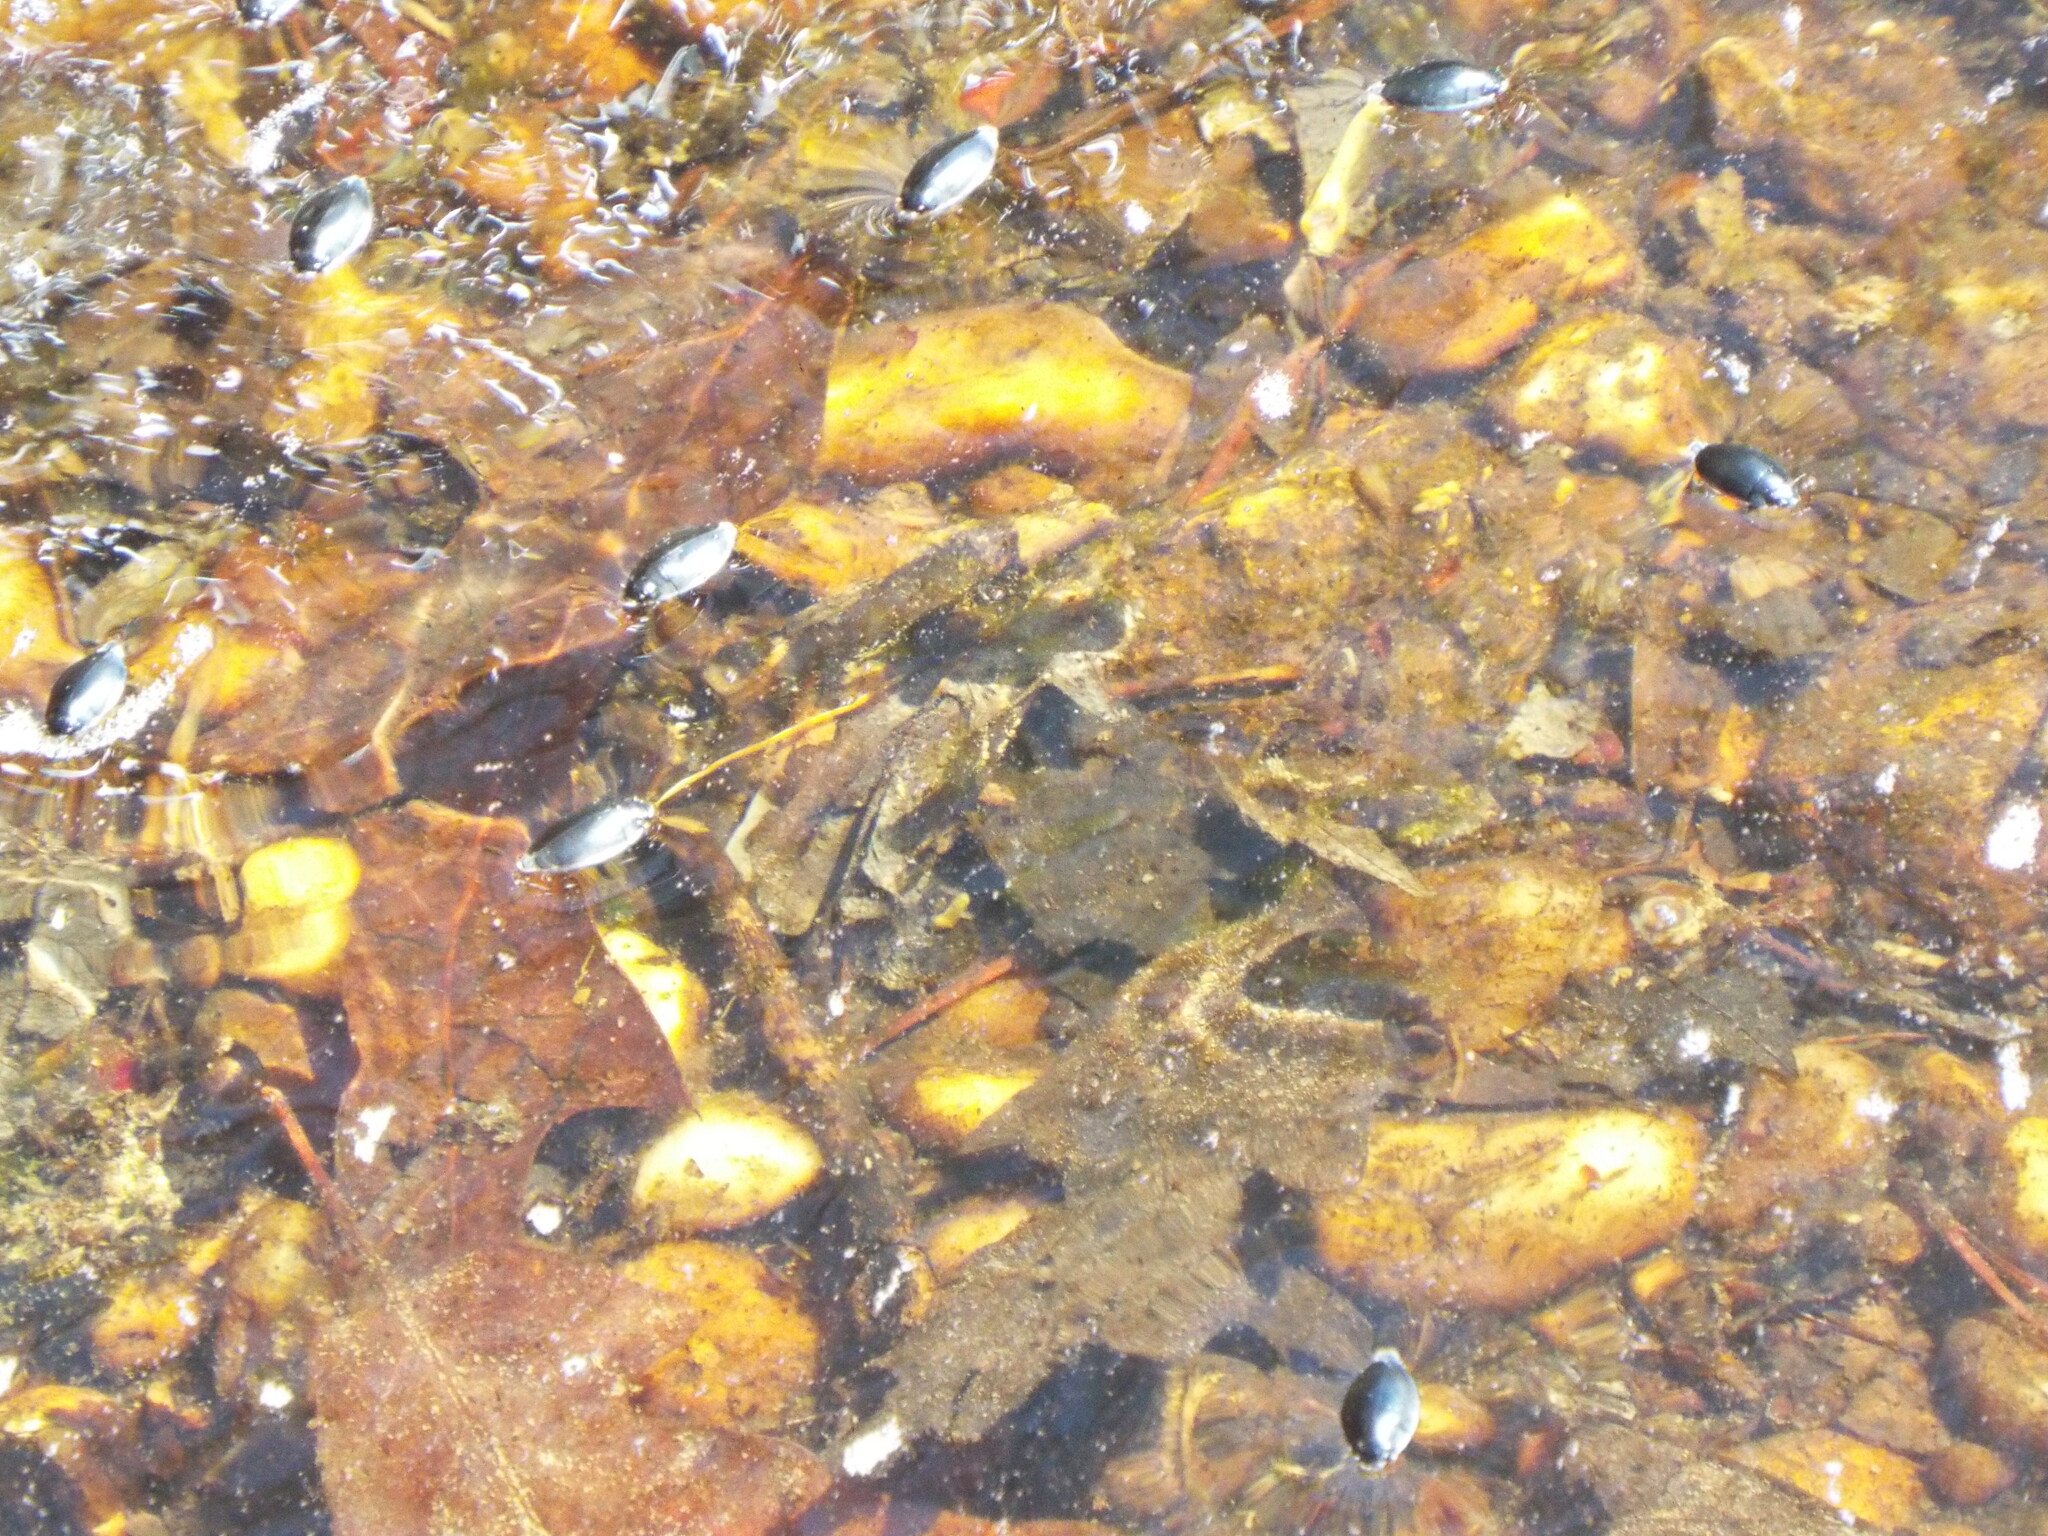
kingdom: Animalia
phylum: Arthropoda
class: Insecta
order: Coleoptera
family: Gyrinidae
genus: Dineutus
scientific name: Dineutus
